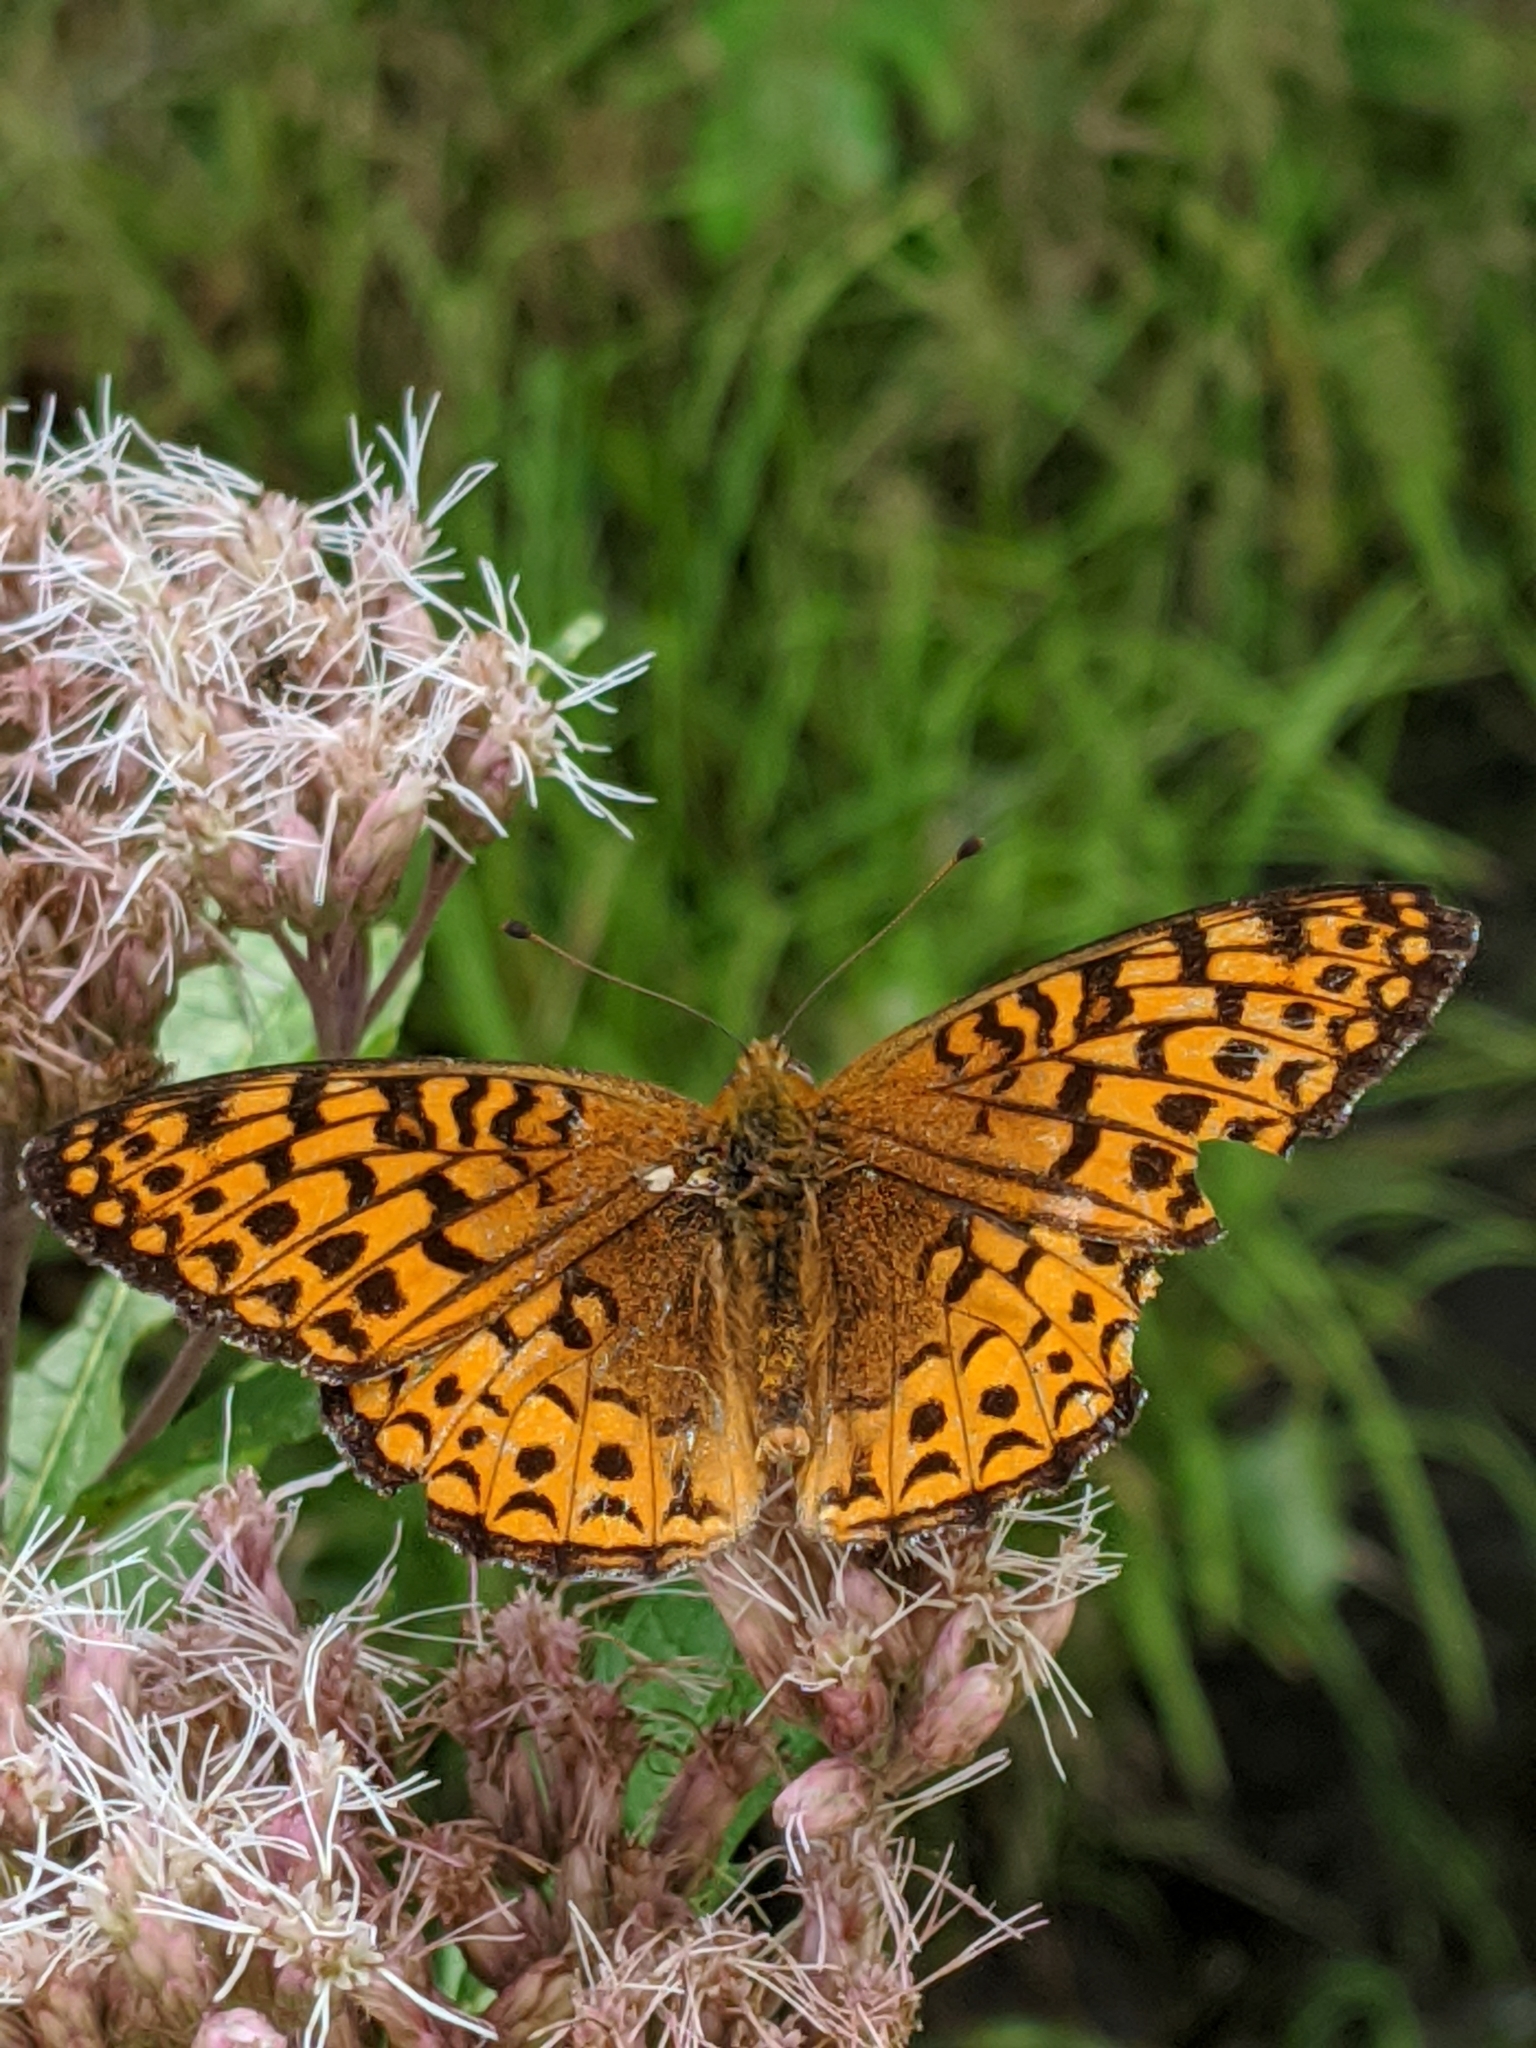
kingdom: Animalia
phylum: Arthropoda
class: Insecta
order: Lepidoptera
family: Nymphalidae
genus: Speyeria
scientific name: Speyeria atlantis
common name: Atlantis fritillary
